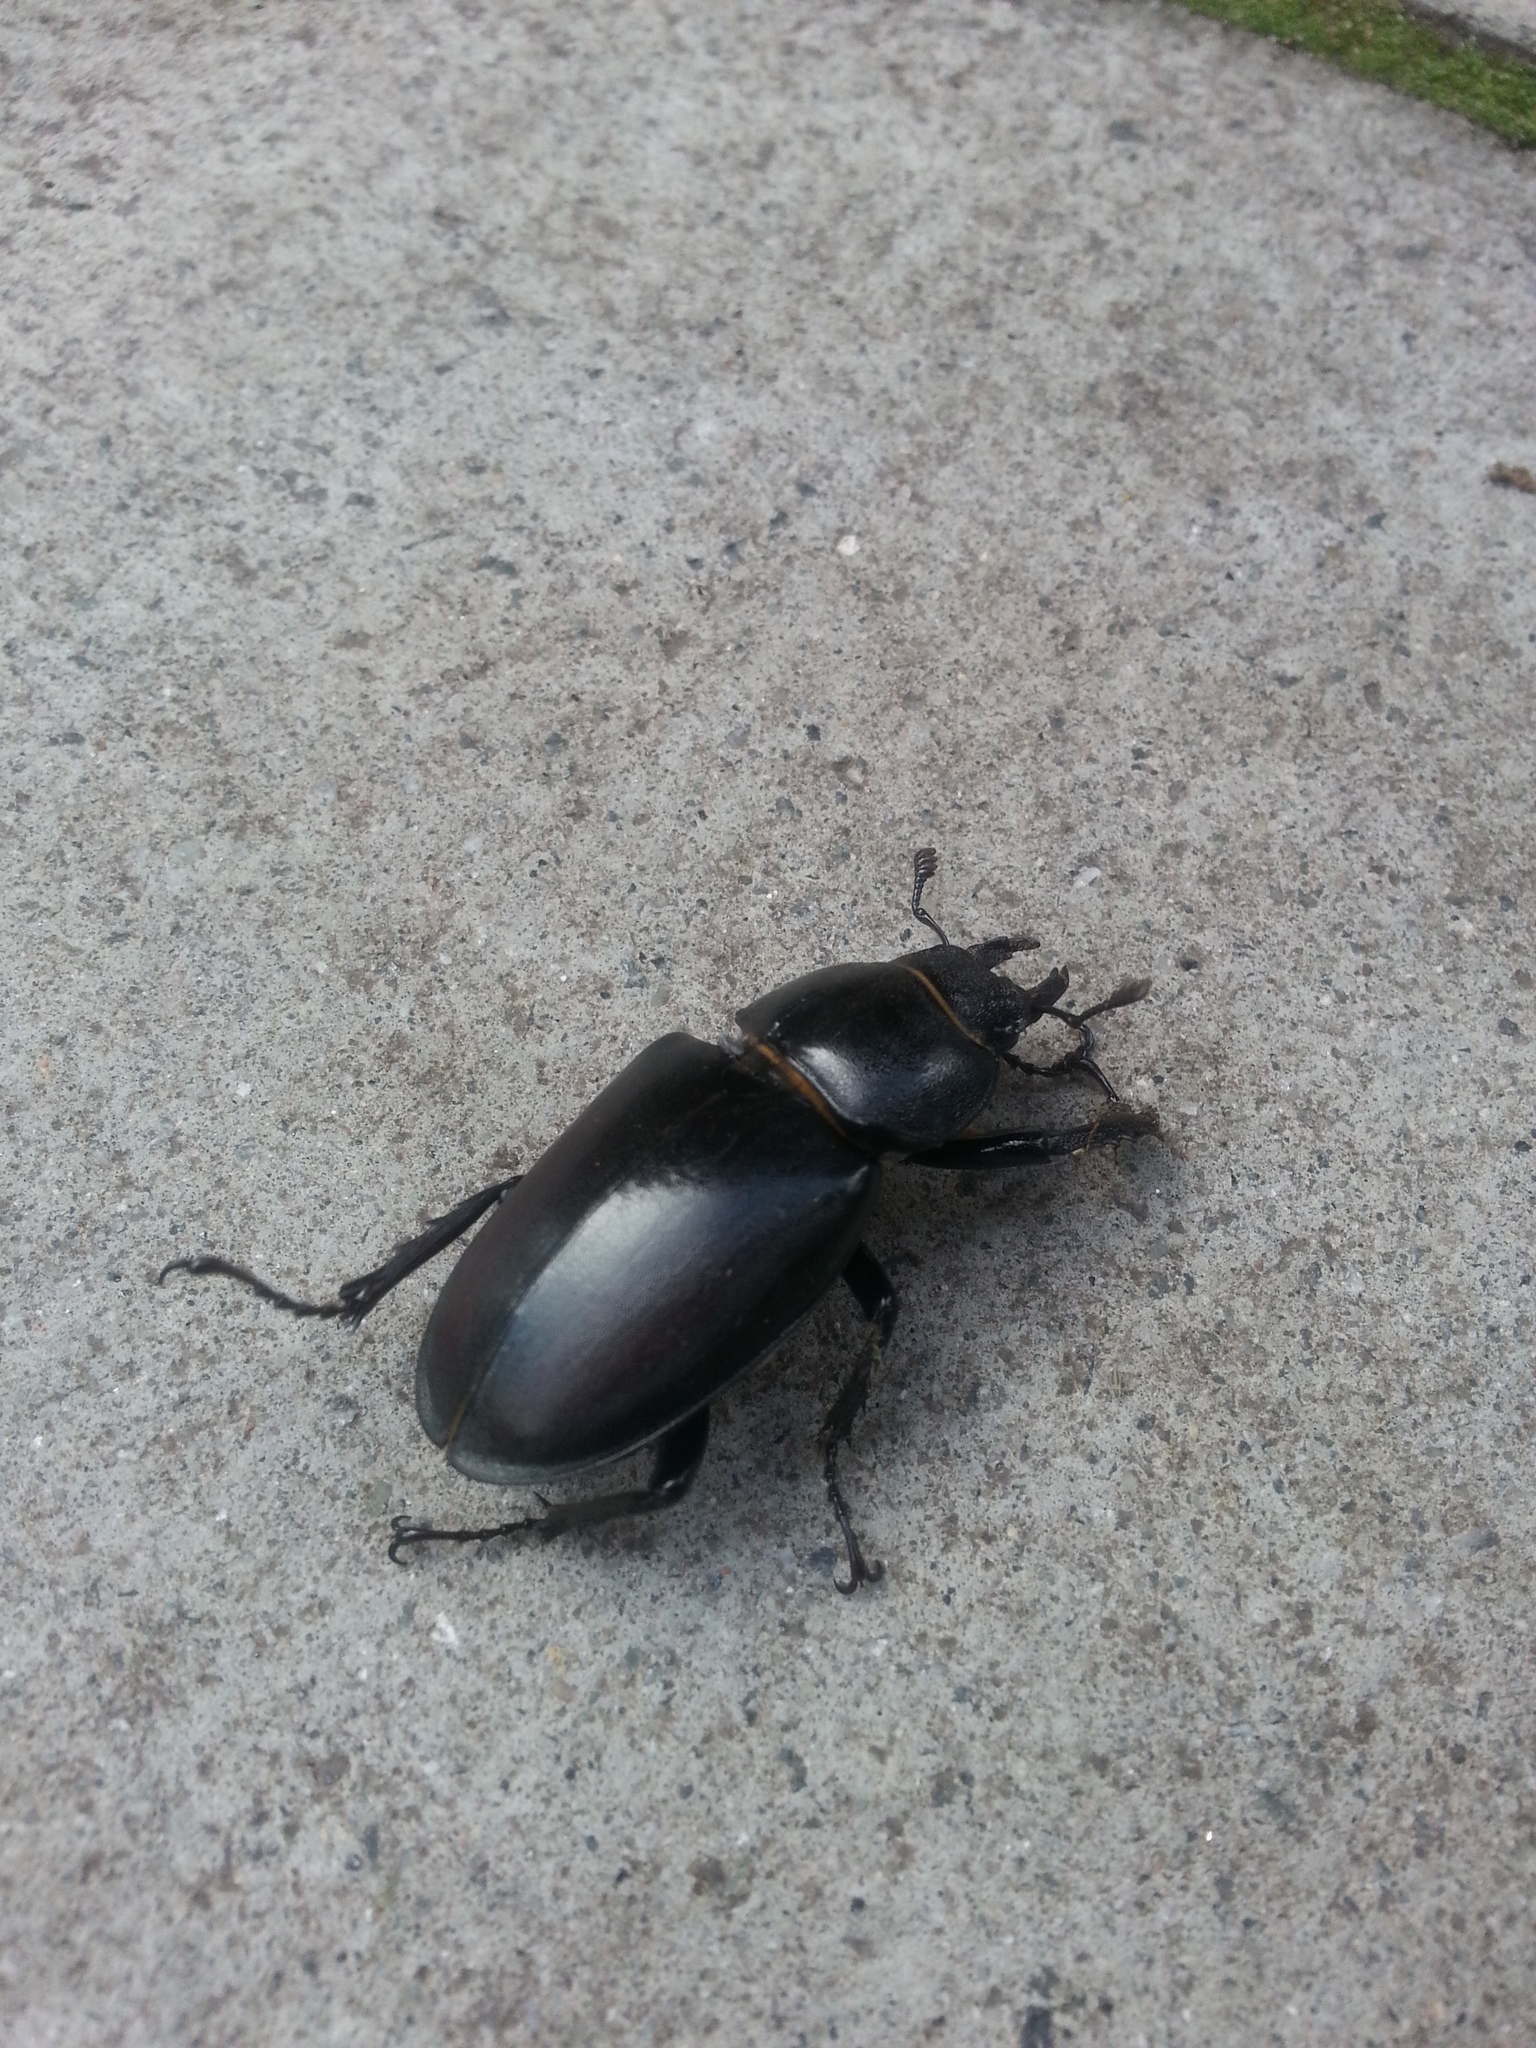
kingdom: Animalia
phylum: Arthropoda
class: Insecta
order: Coleoptera
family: Lucanidae
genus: Lucanus
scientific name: Lucanus cervus
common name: Stag beetle
